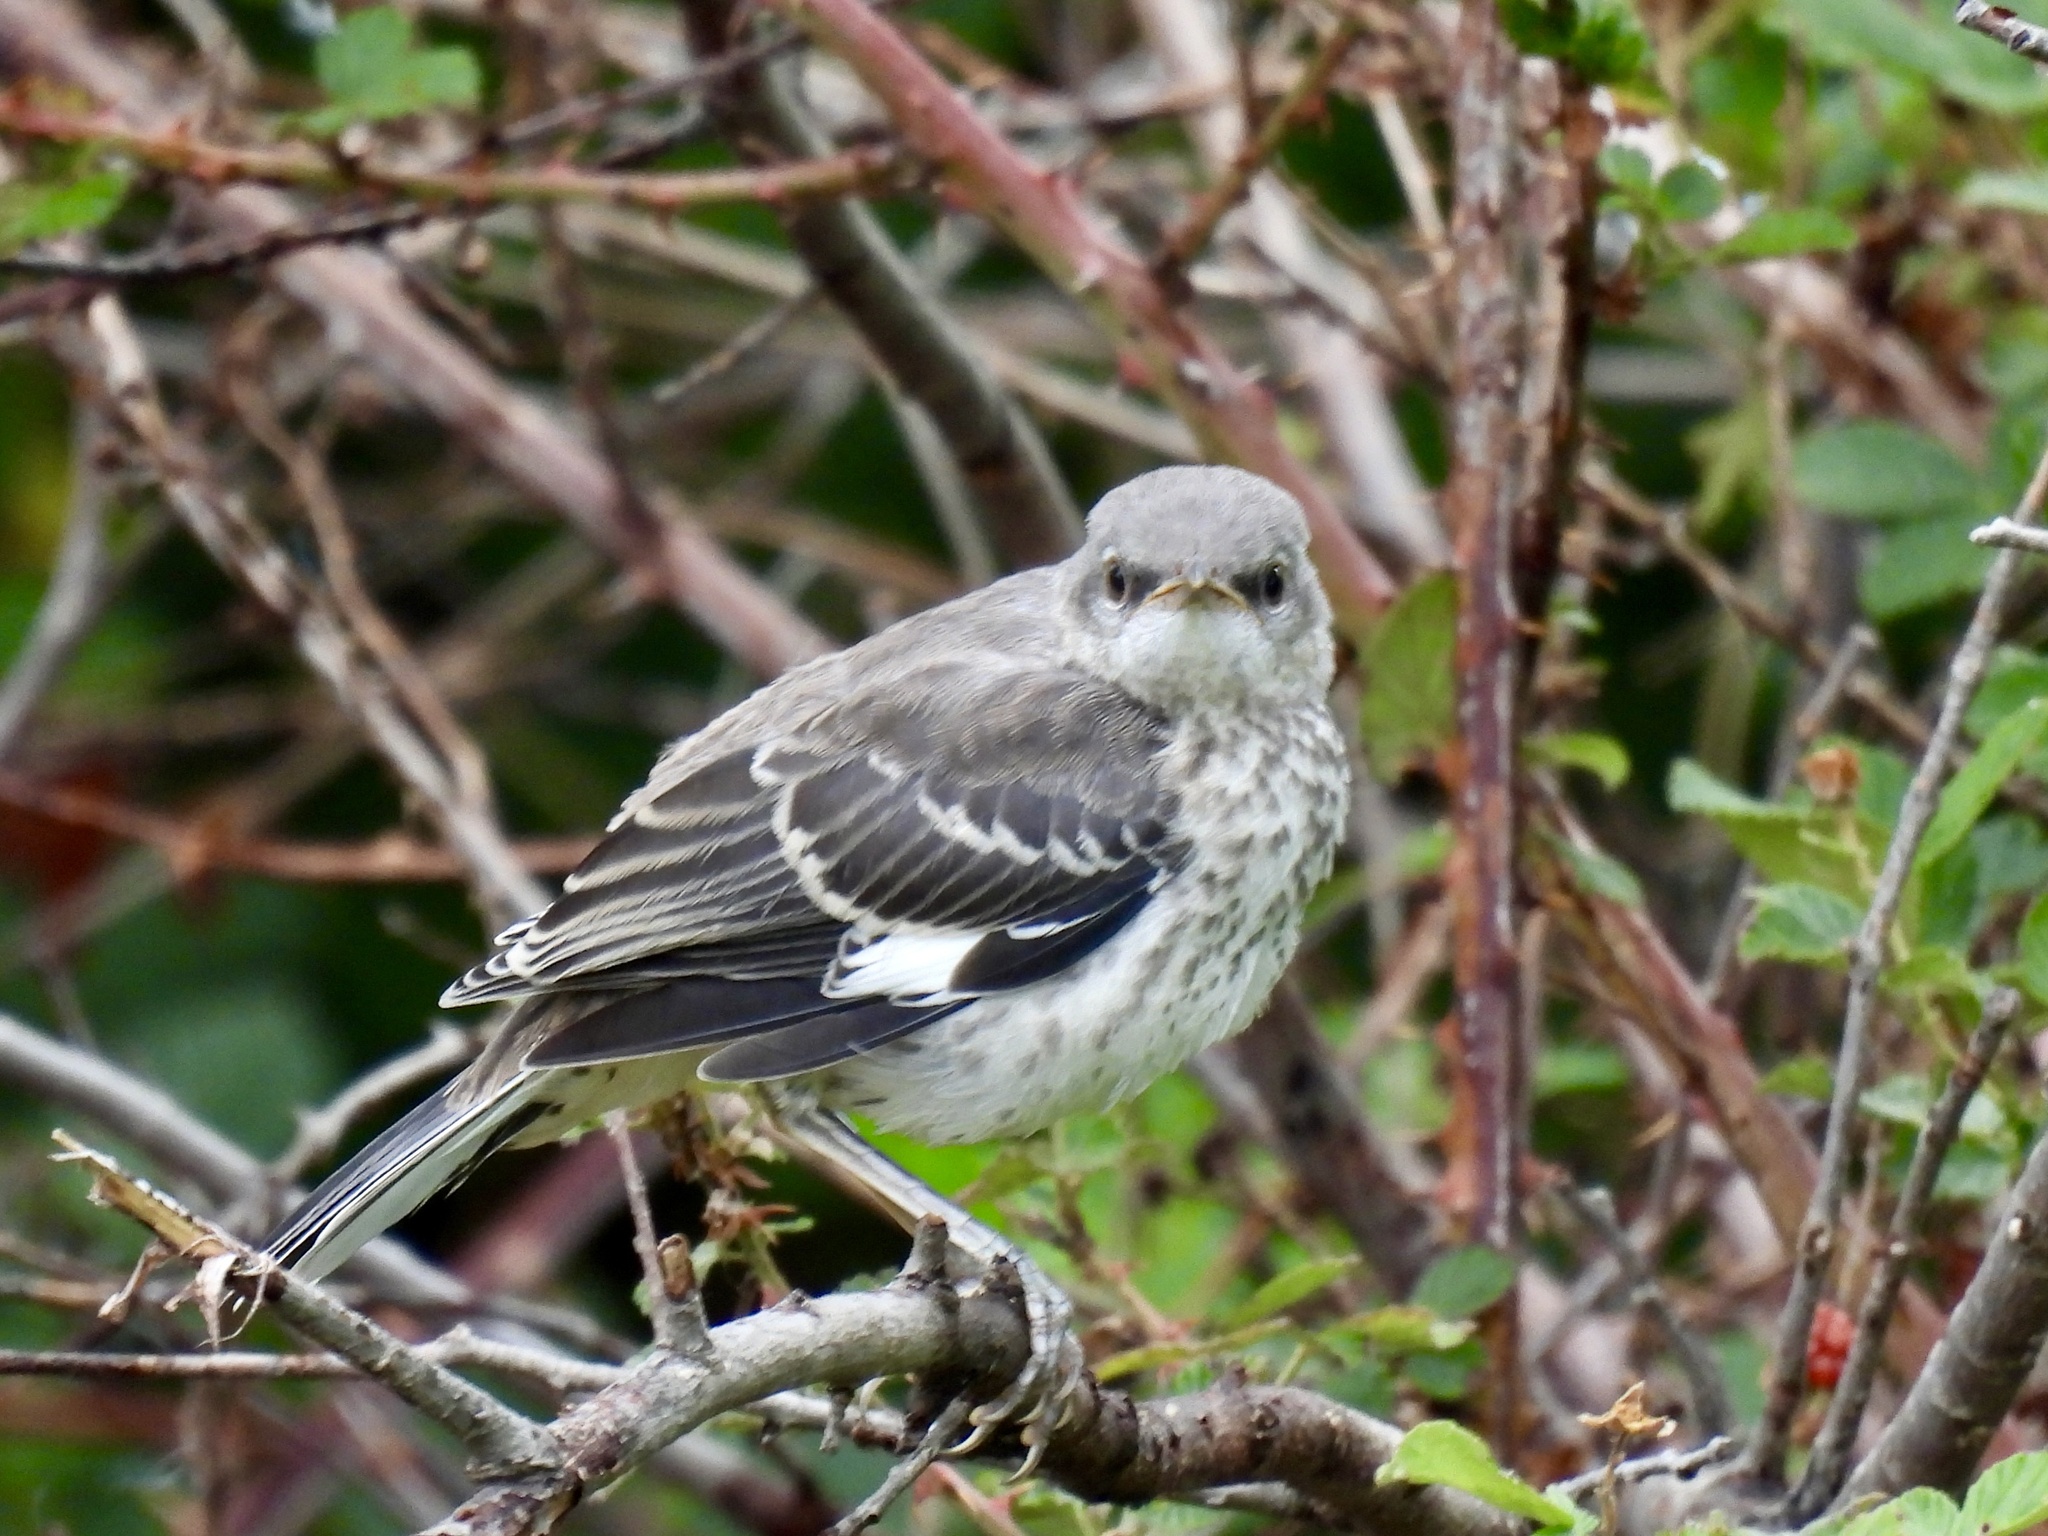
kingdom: Animalia
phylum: Chordata
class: Aves
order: Passeriformes
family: Mimidae
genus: Mimus
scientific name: Mimus polyglottos
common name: Northern mockingbird
